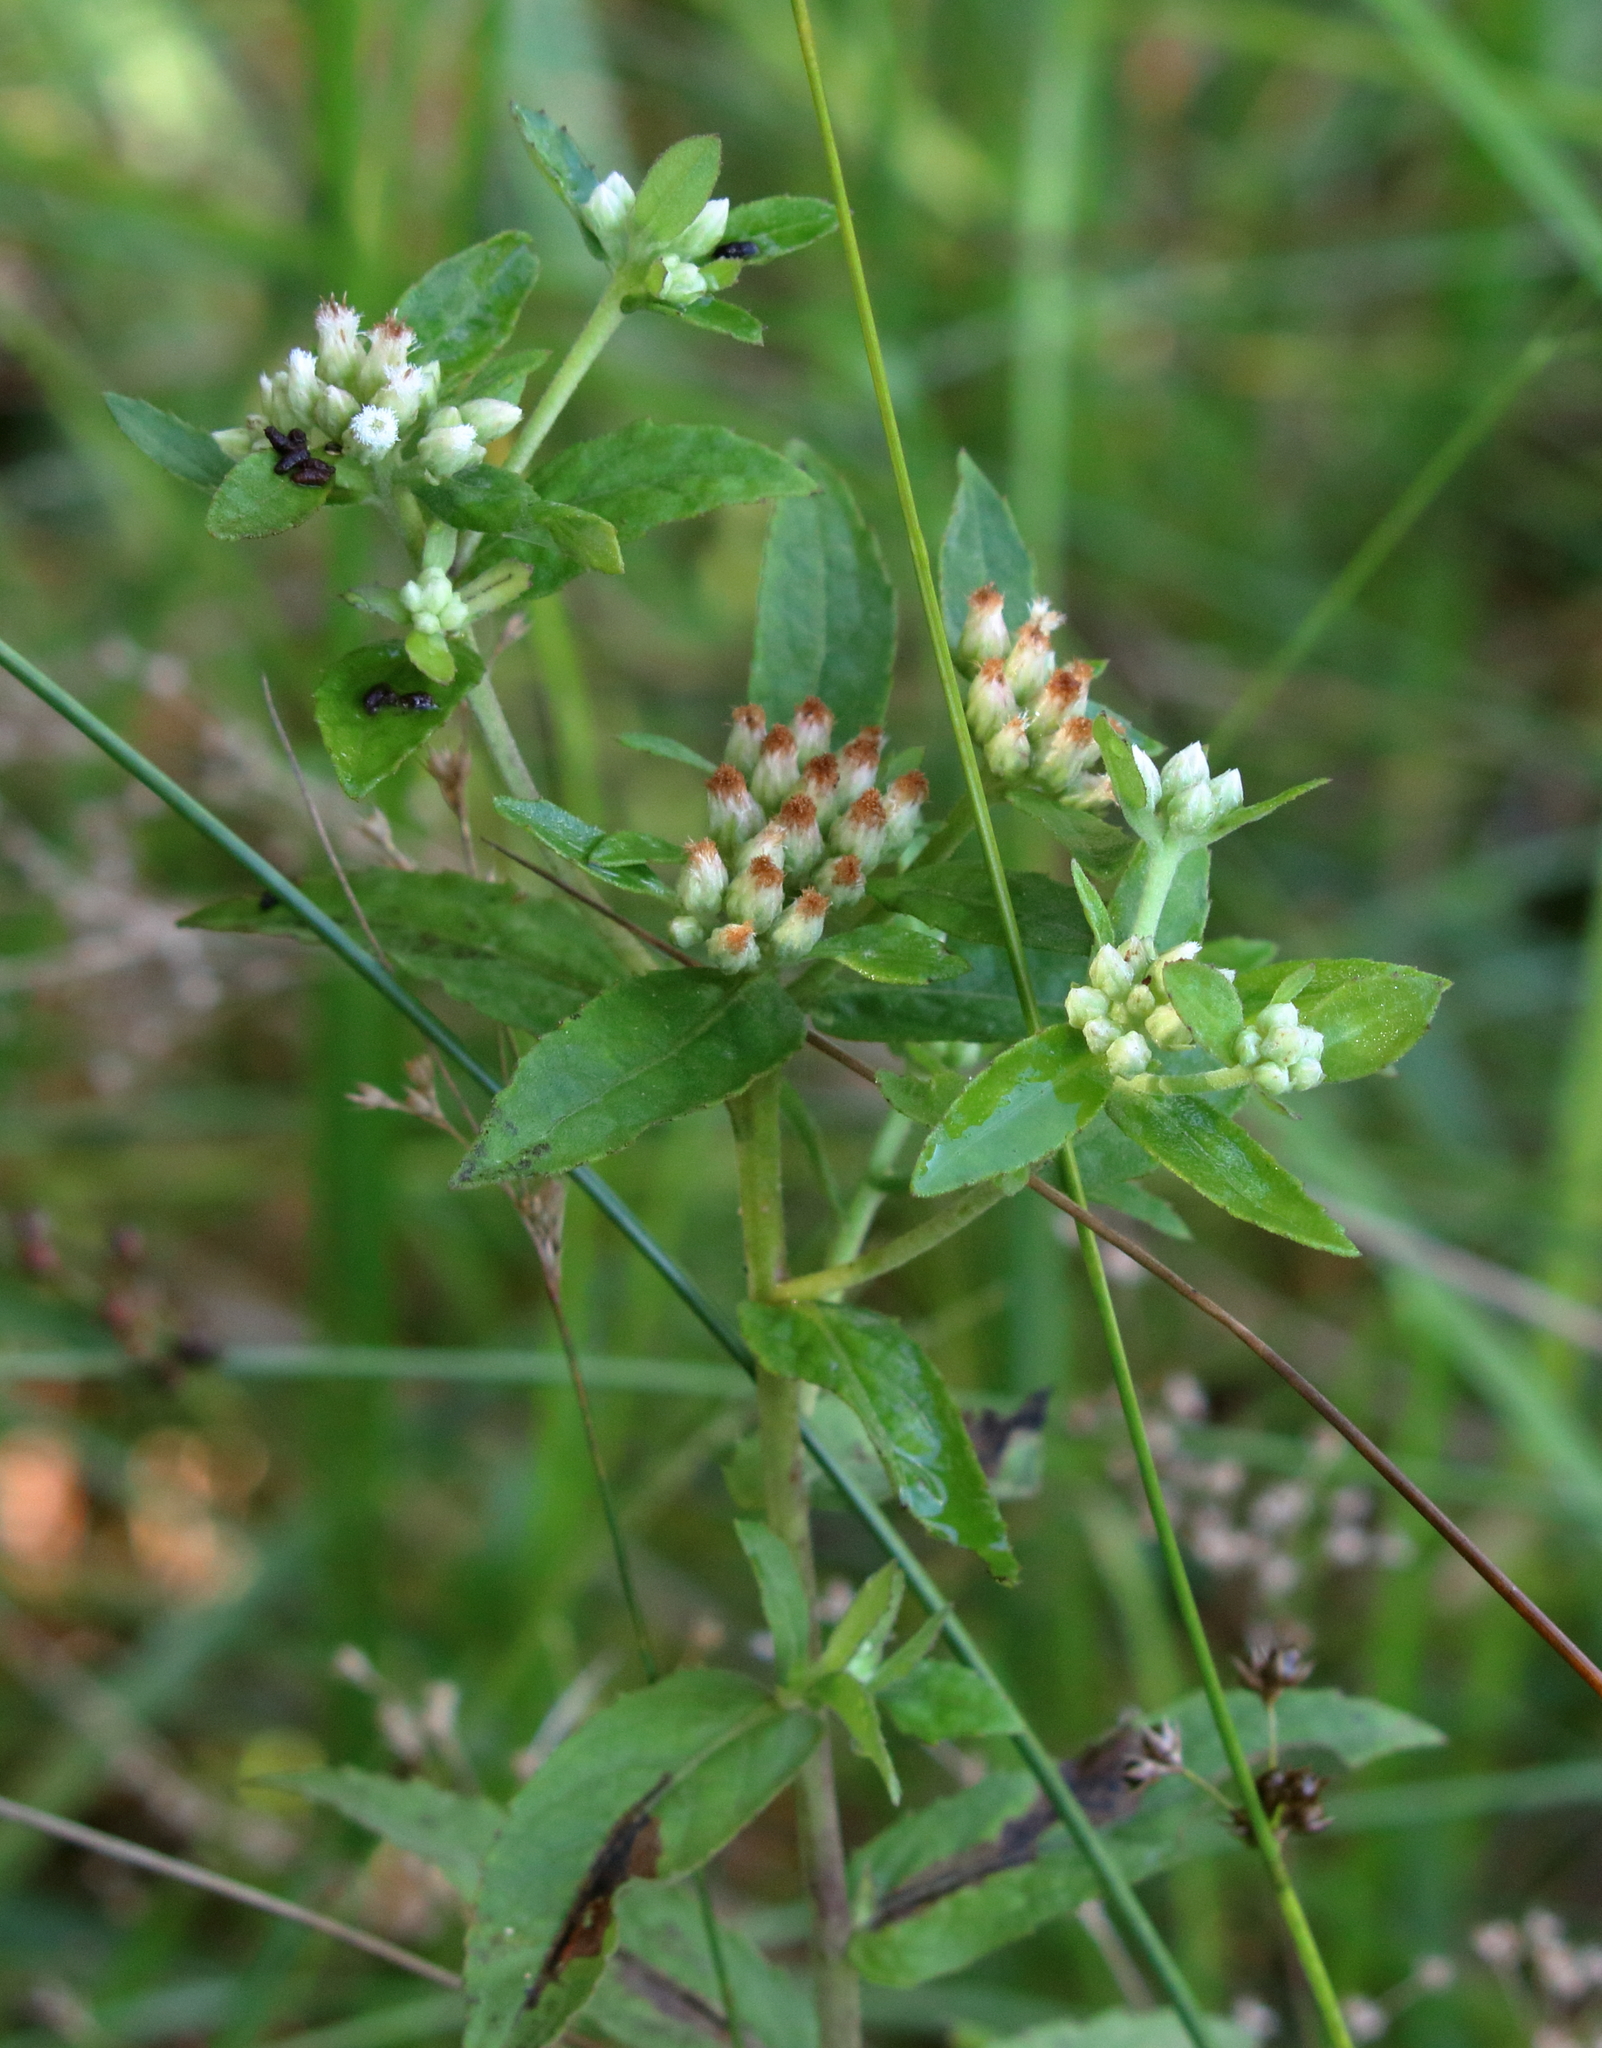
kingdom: Plantae
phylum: Tracheophyta
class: Magnoliopsida
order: Asterales
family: Asteraceae
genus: Pluchea
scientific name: Pluchea foetida
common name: Stinking camphorweed
